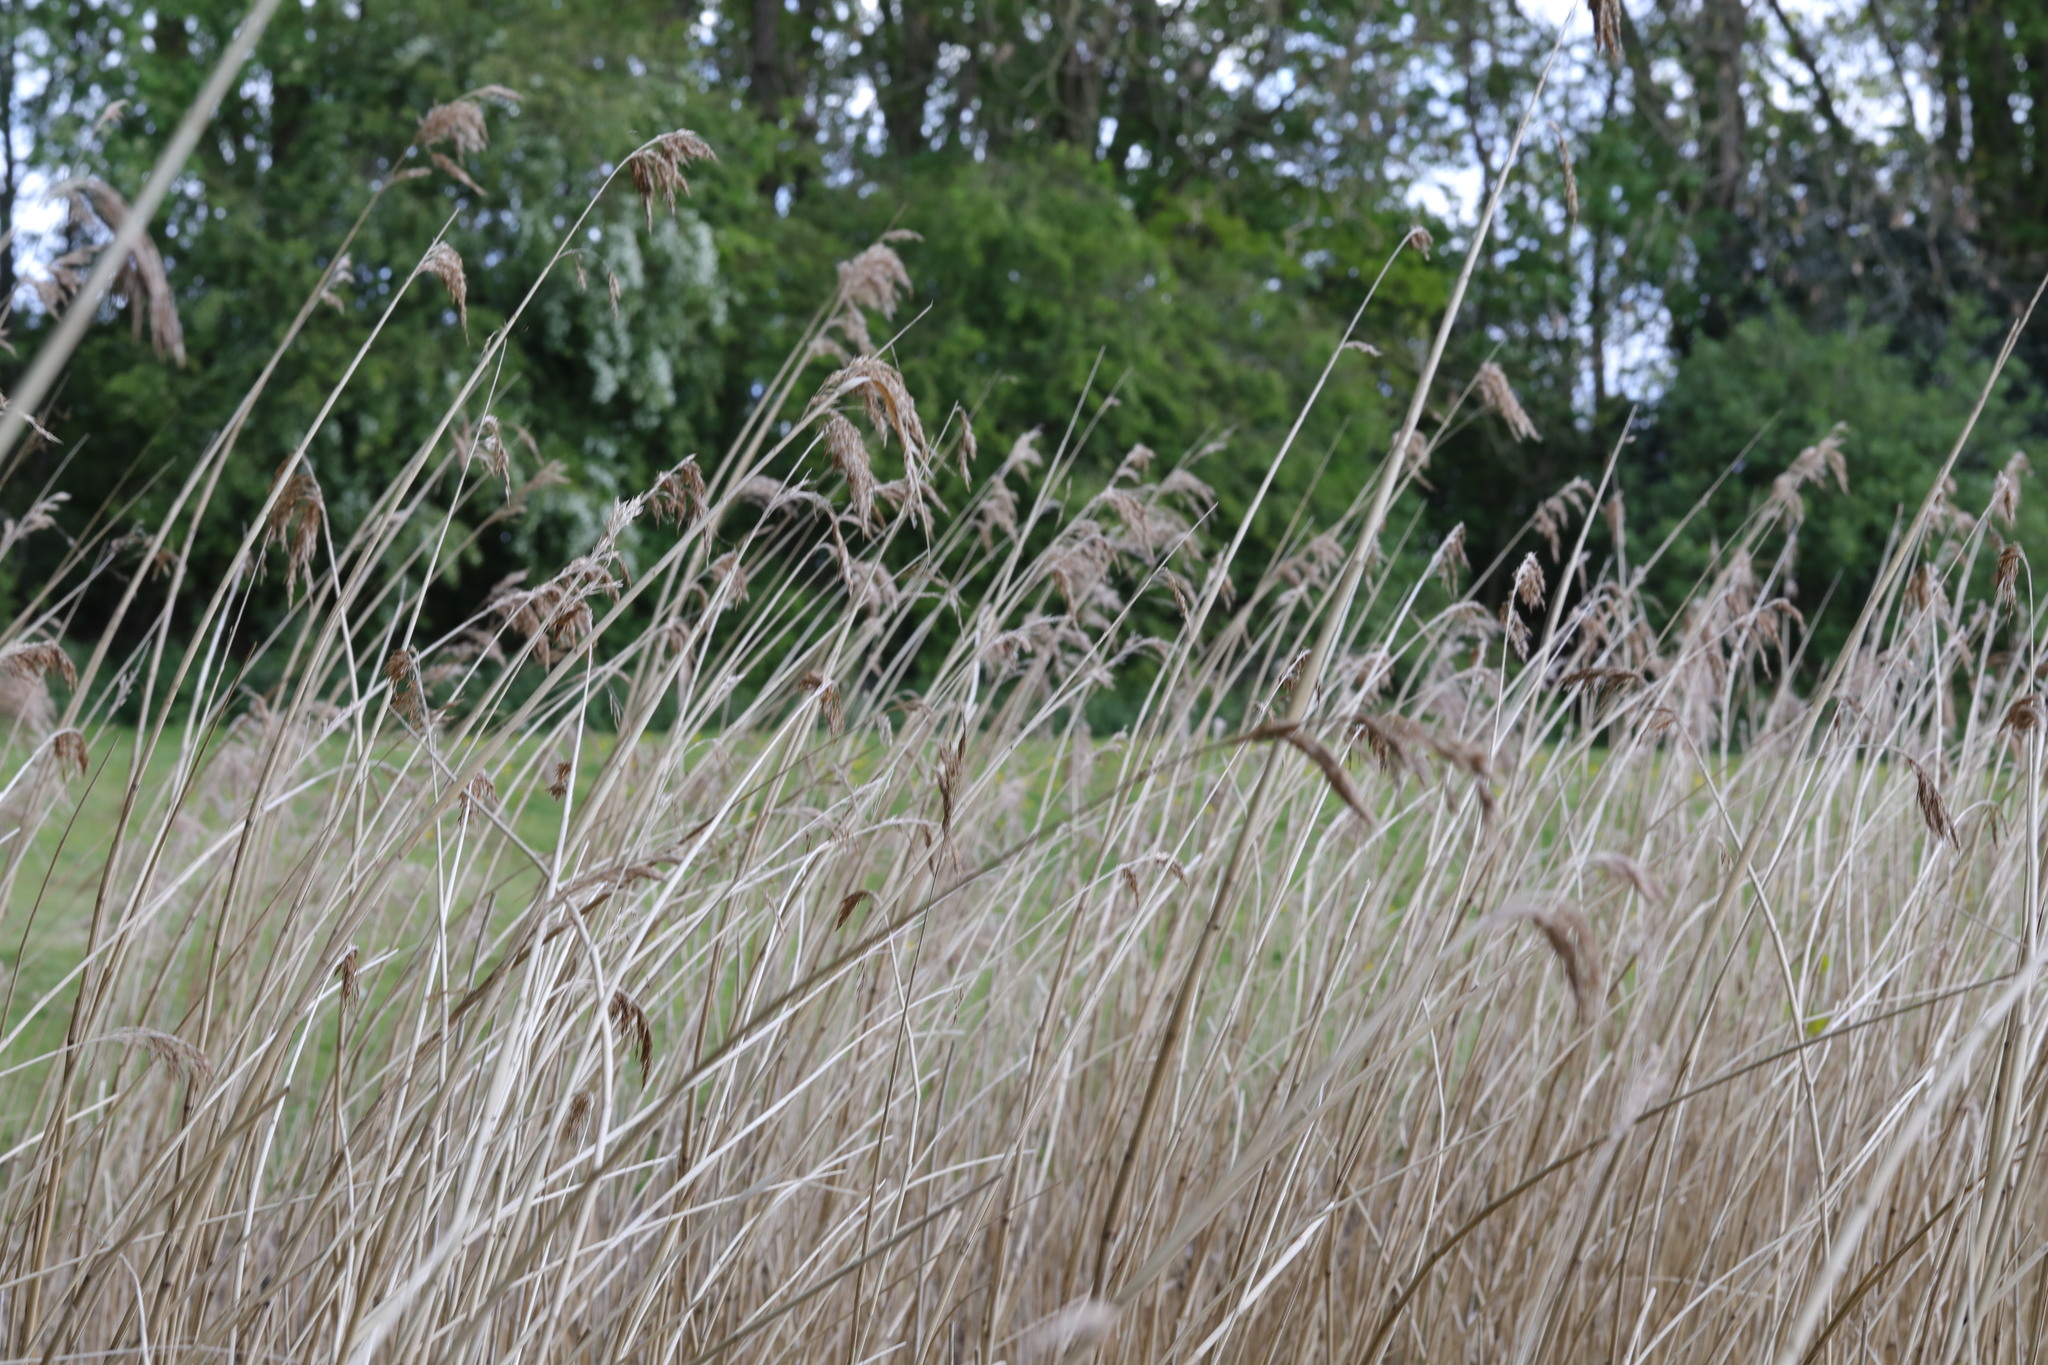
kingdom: Plantae
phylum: Tracheophyta
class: Liliopsida
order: Poales
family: Poaceae
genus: Phragmites
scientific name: Phragmites australis
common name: Common reed
